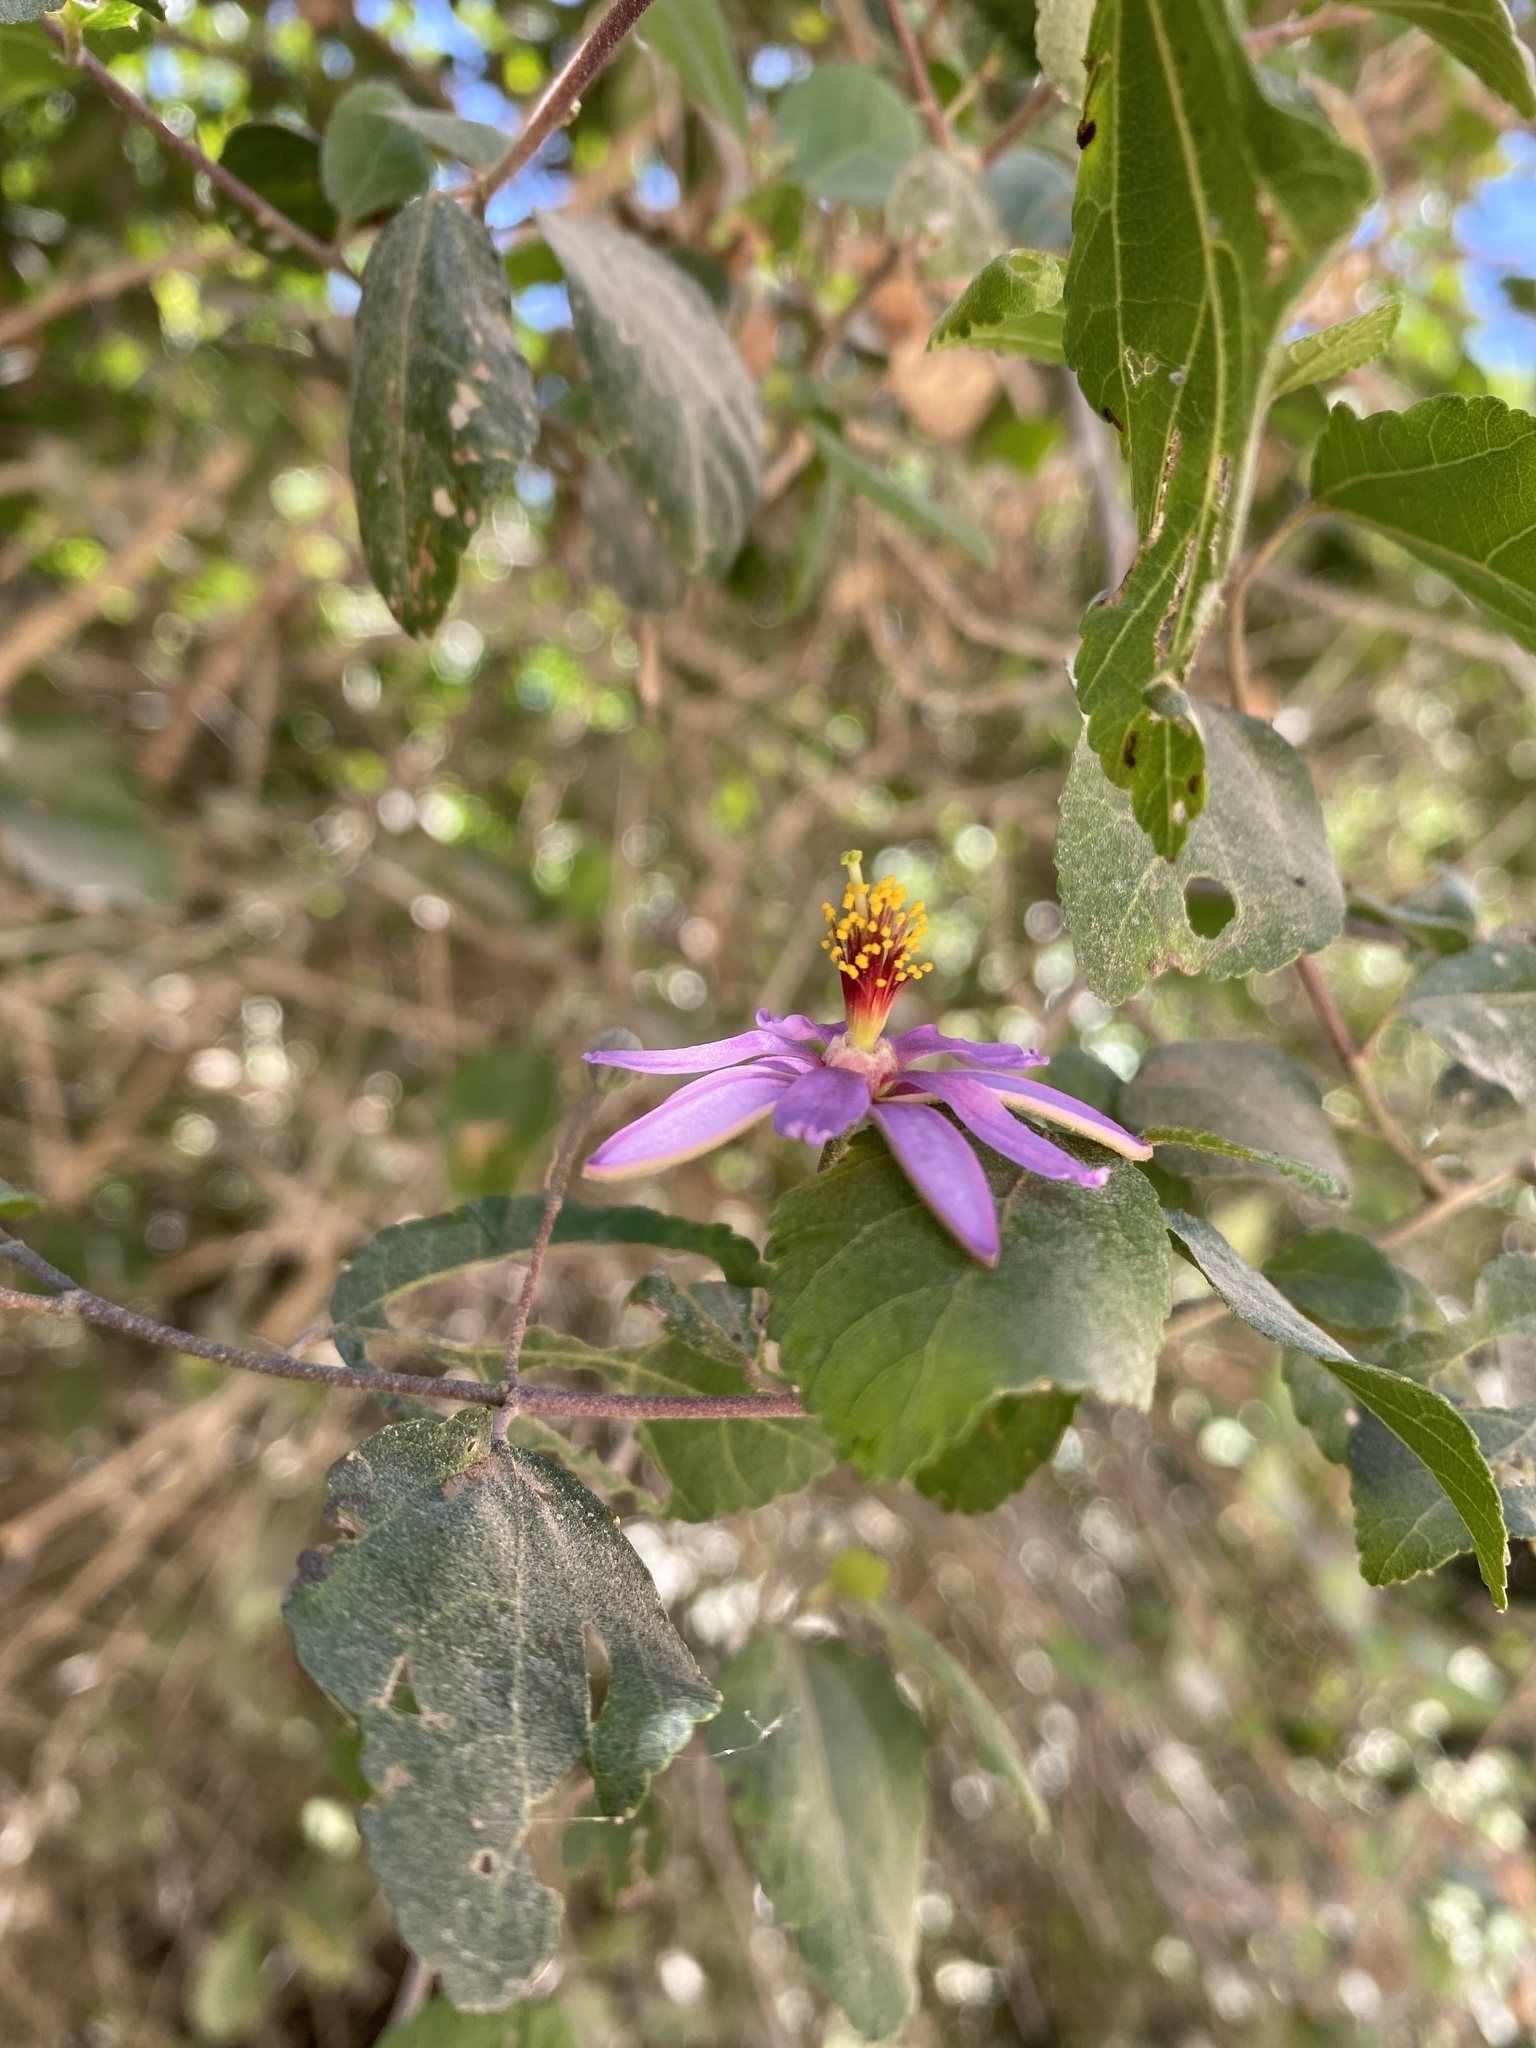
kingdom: Plantae
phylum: Tracheophyta
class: Magnoliopsida
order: Malvales
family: Malvaceae
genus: Grewia
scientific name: Grewia occidentalis
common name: Crossberry
